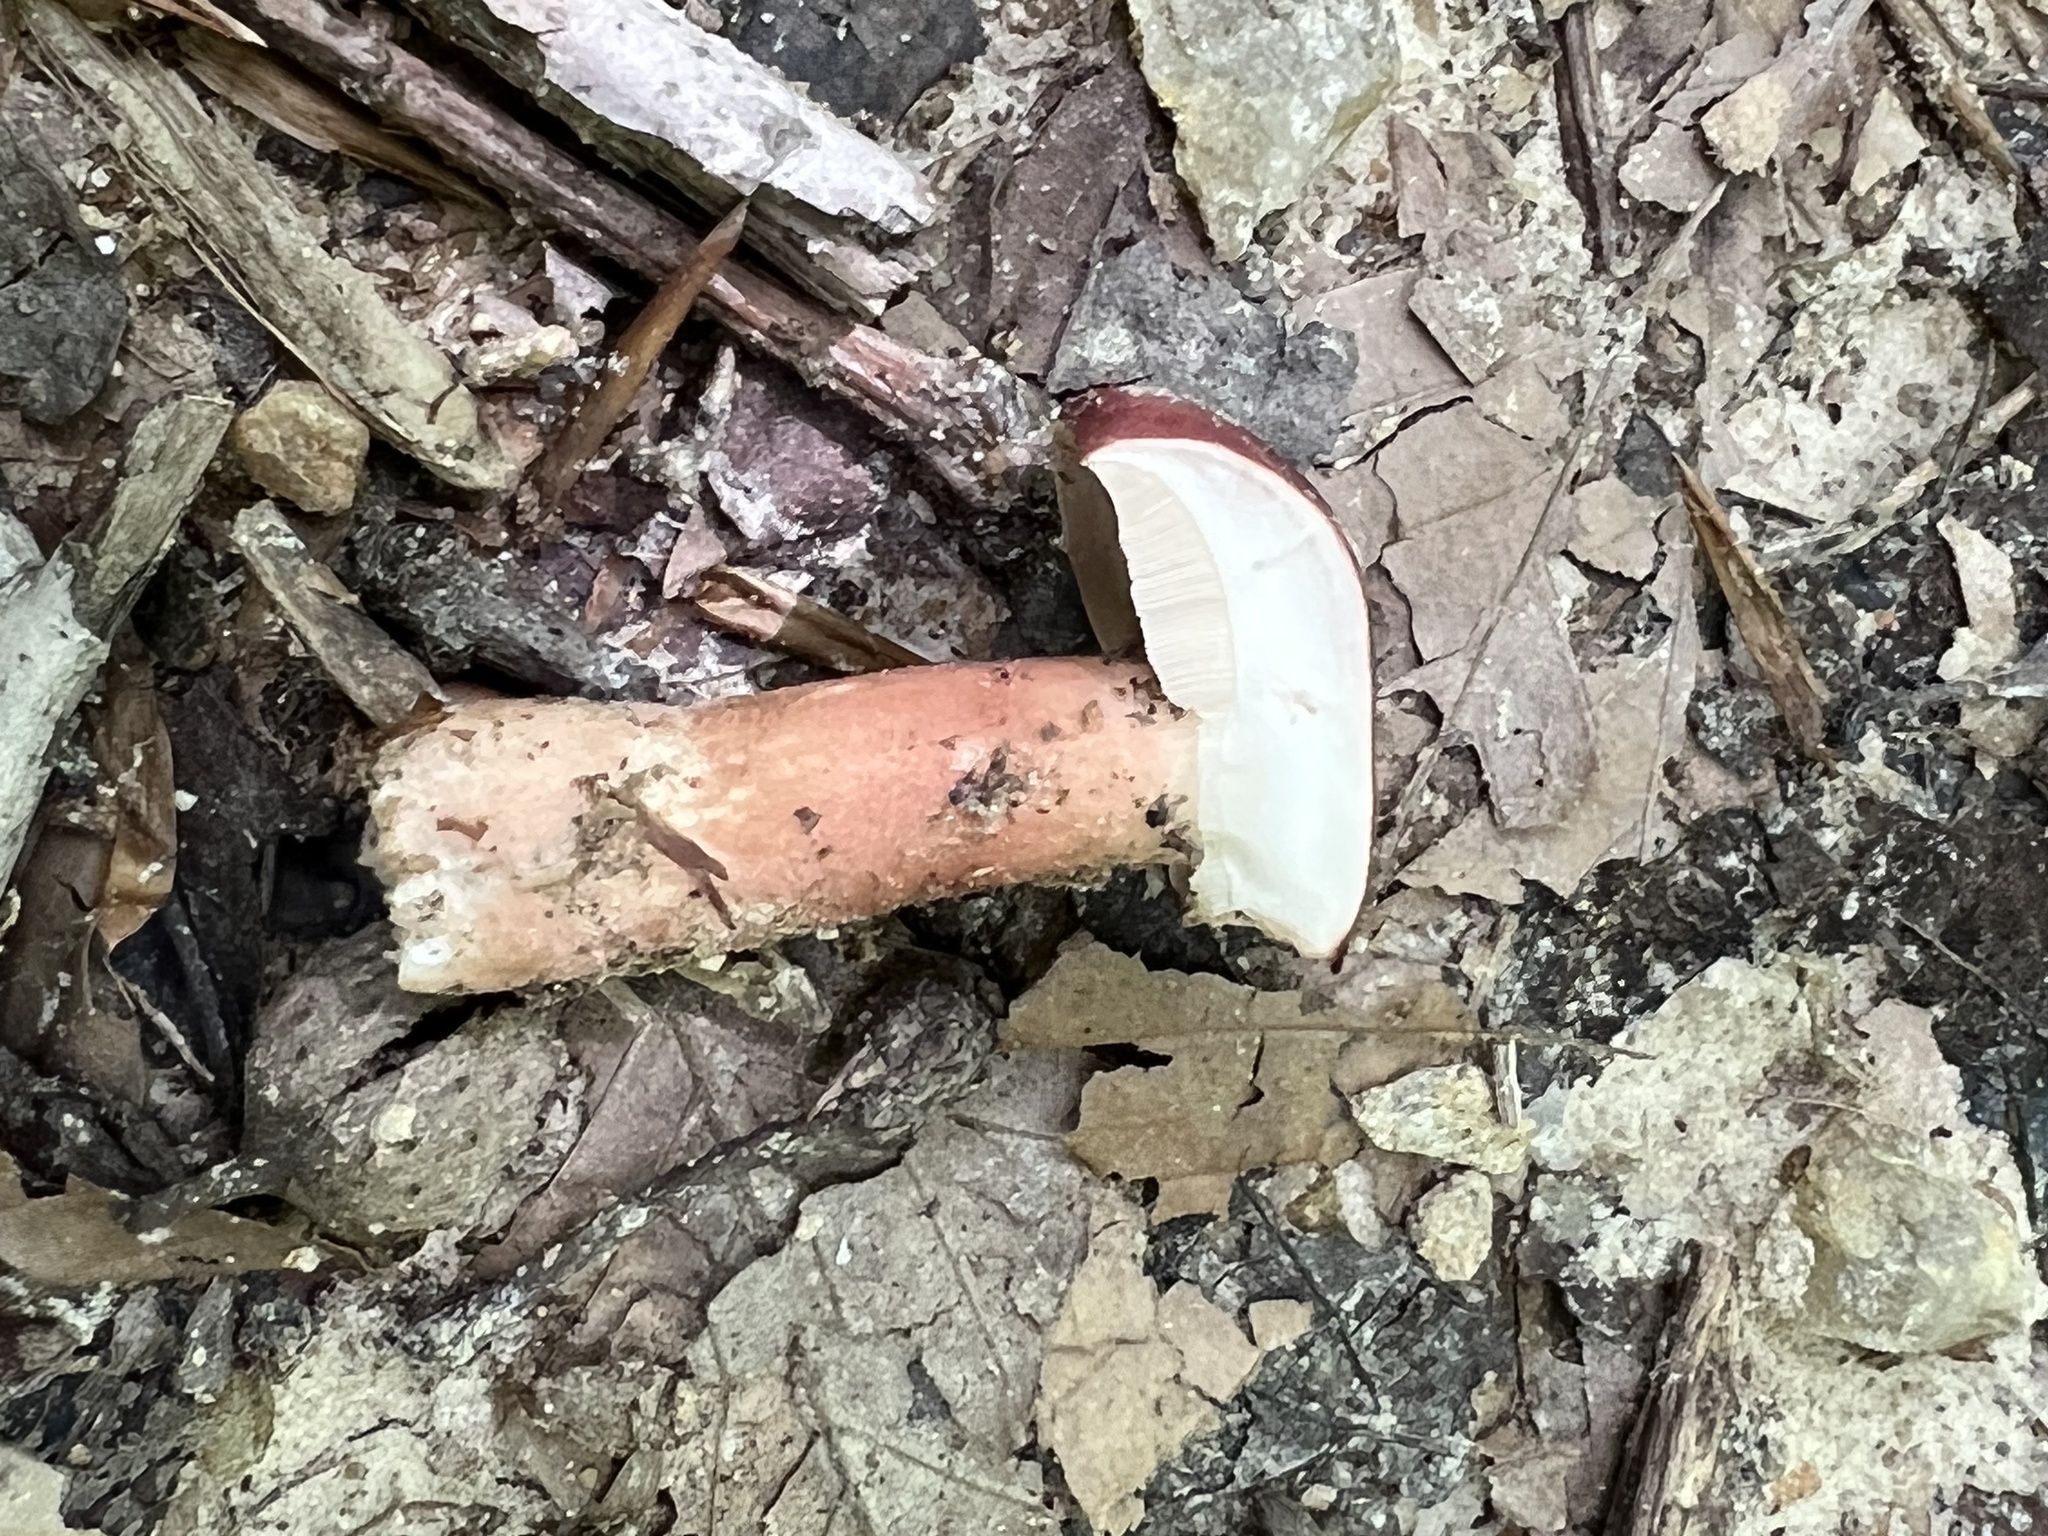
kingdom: Fungi
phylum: Basidiomycota
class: Agaricomycetes
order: Boletales
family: Boletaceae
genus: Xanthoconium
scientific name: Xanthoconium purpureum
